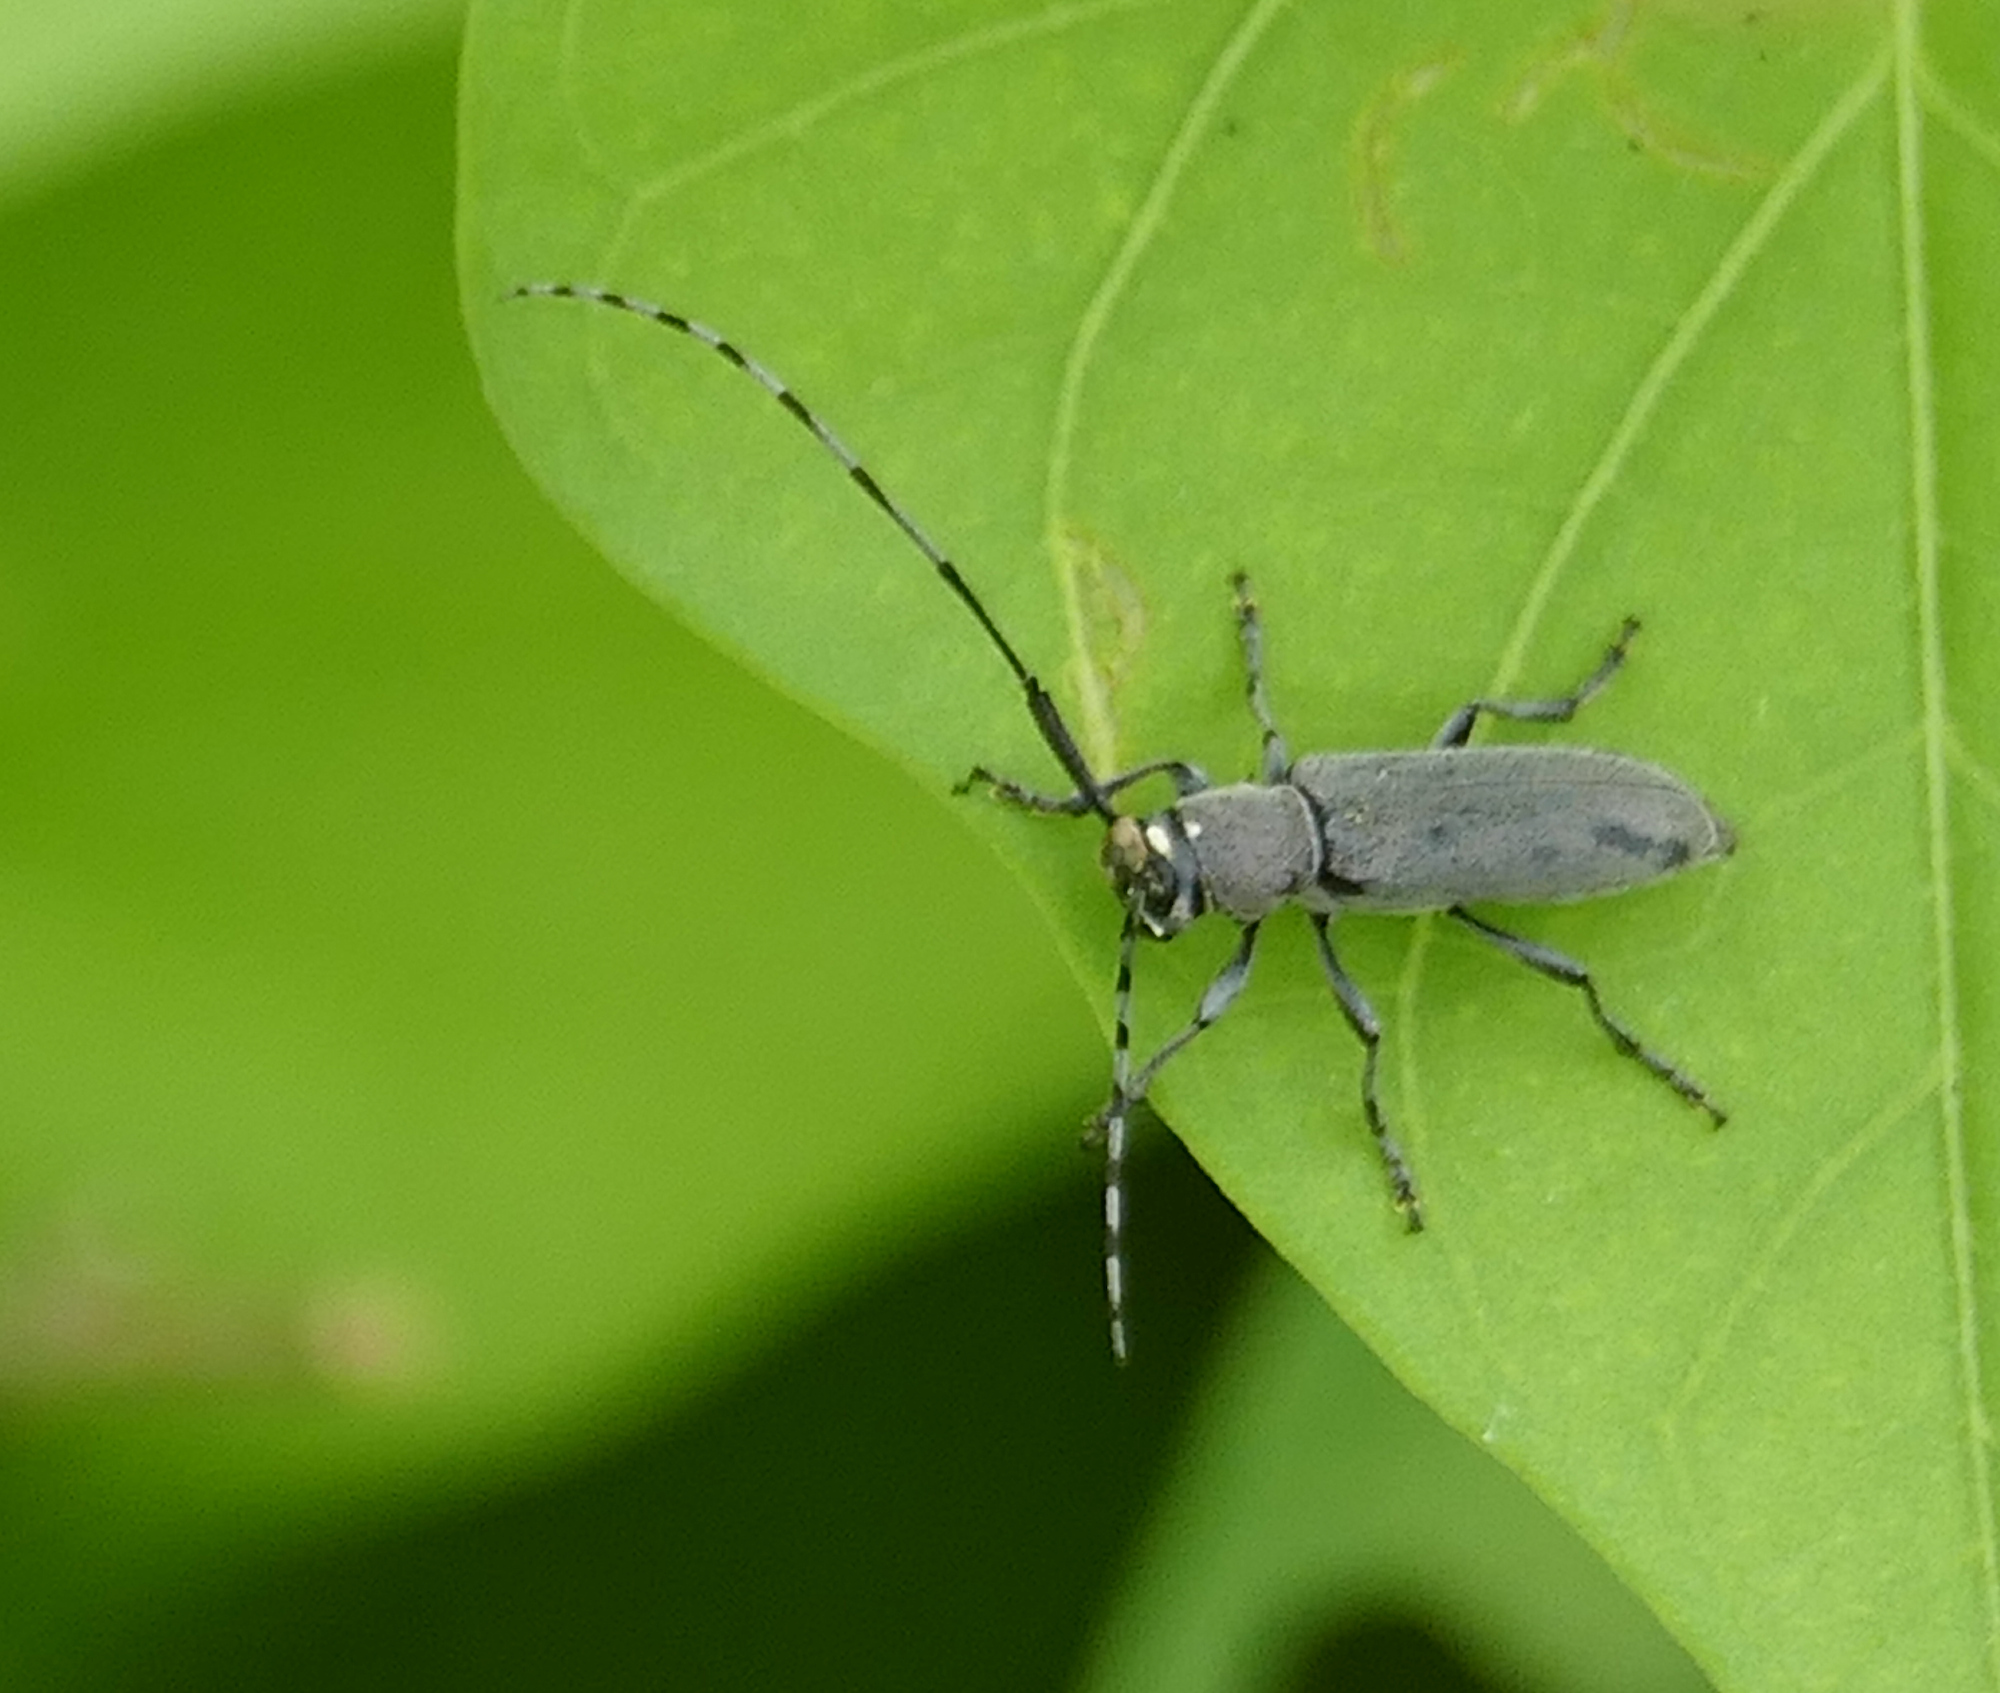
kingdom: Animalia
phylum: Arthropoda
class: Insecta
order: Coleoptera
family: Cerambycidae
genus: Dectes
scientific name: Dectes texanus
